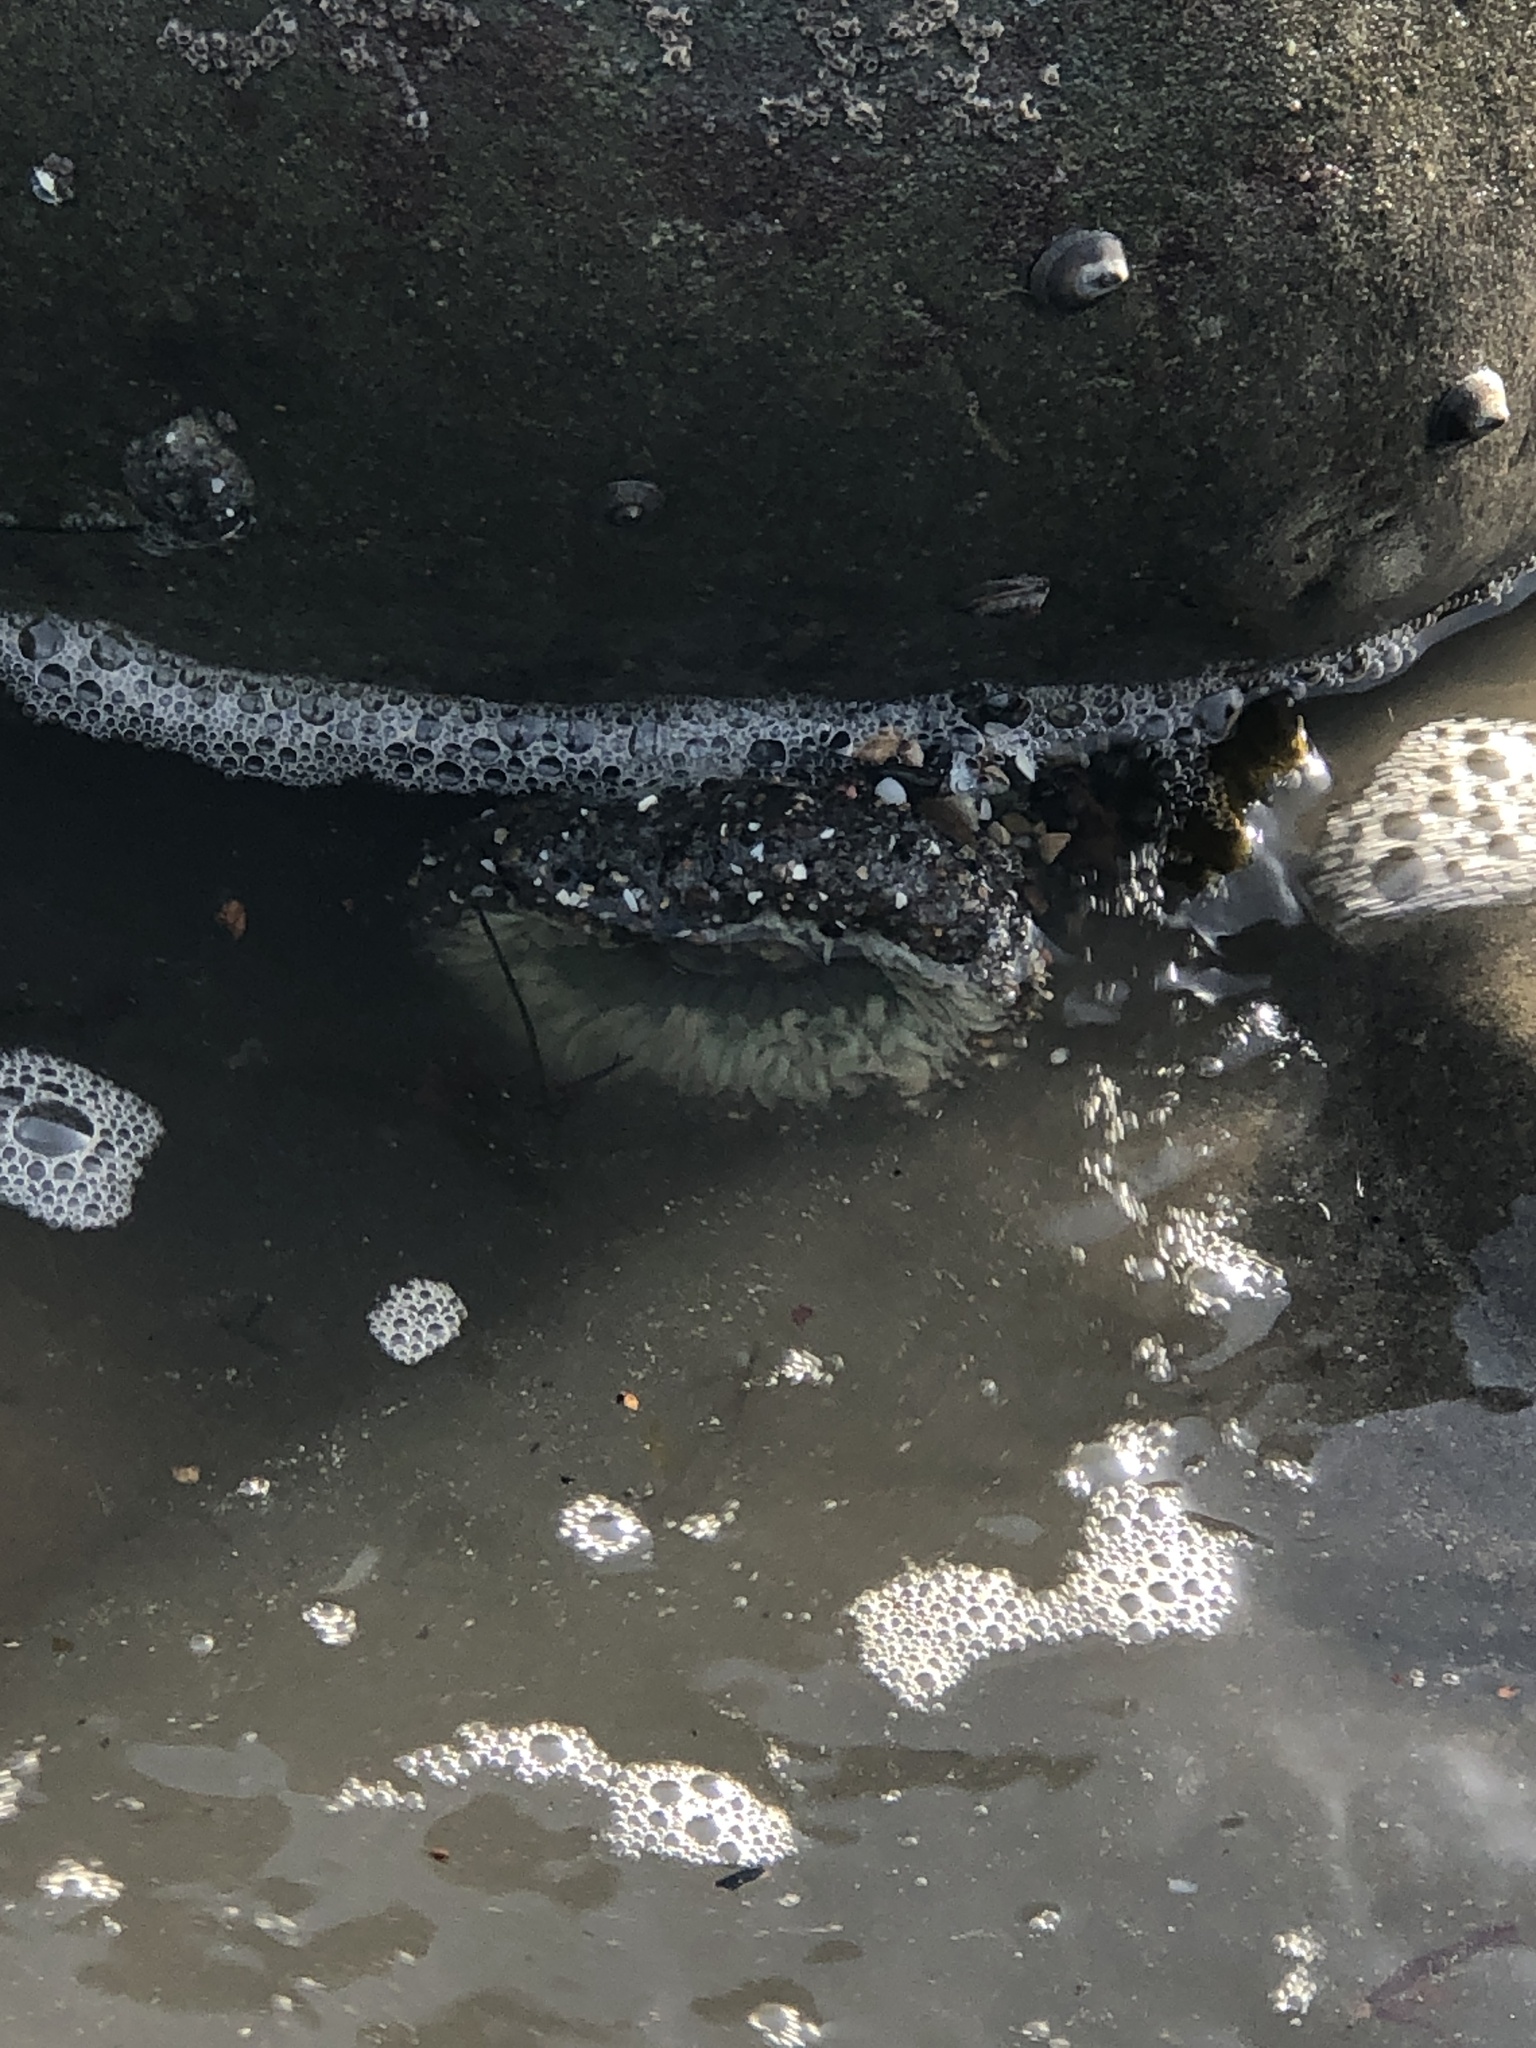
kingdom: Animalia
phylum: Cnidaria
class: Anthozoa
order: Actiniaria
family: Actiniidae
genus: Anthopleura
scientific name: Anthopleura sola
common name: Sun anemone
